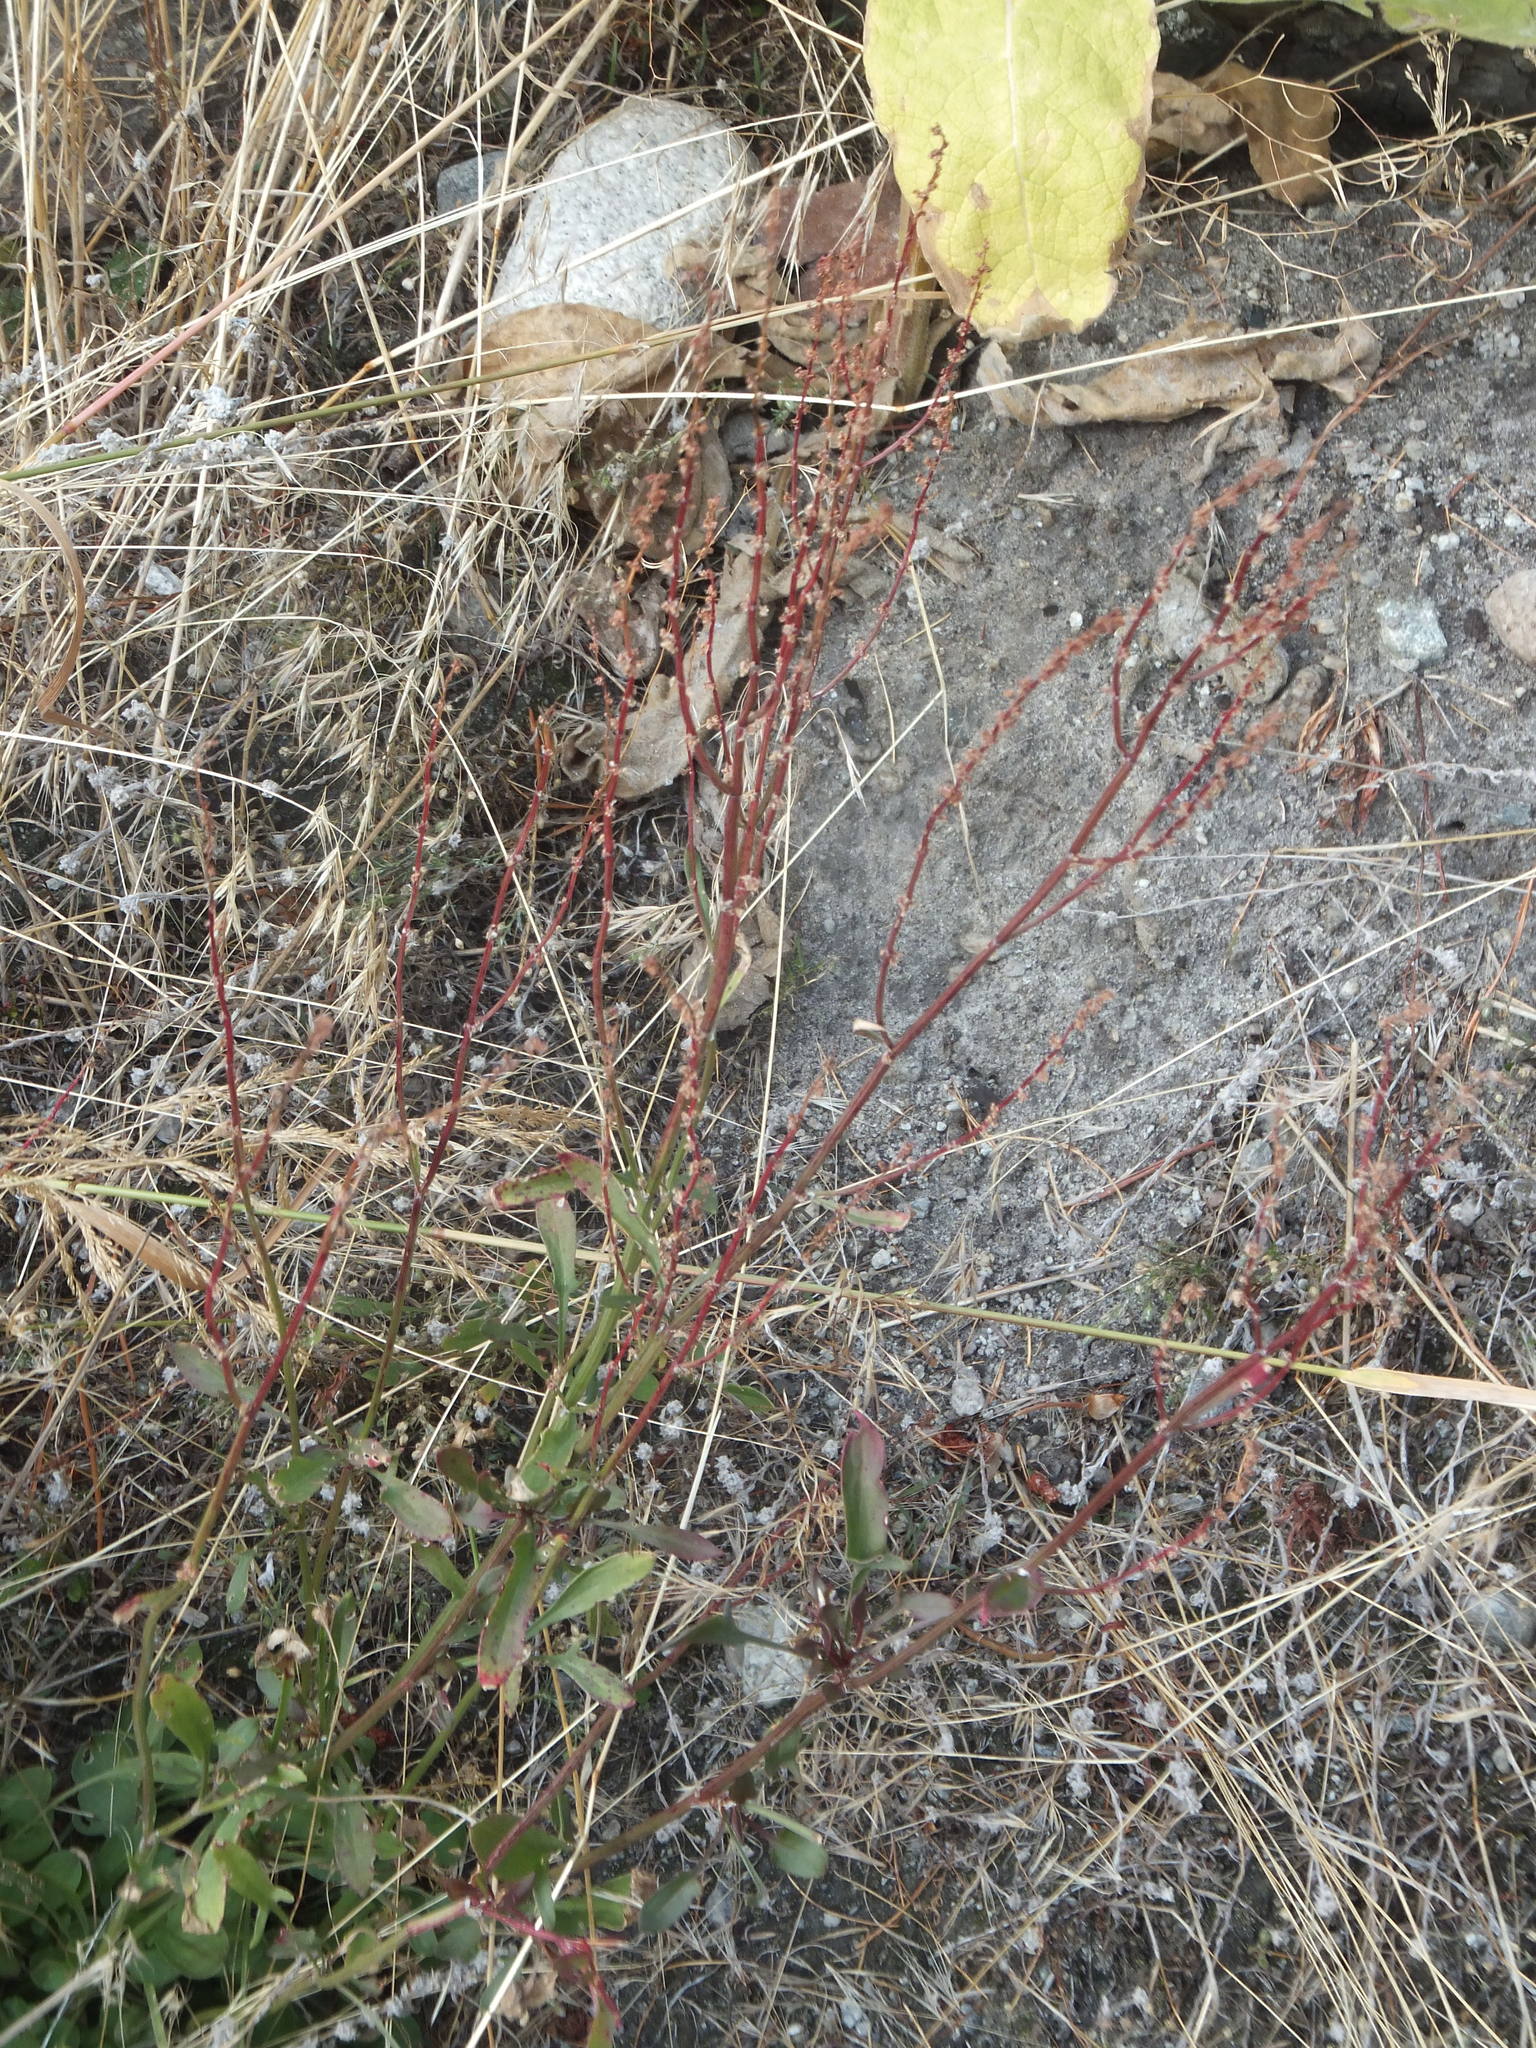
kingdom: Plantae
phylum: Tracheophyta
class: Magnoliopsida
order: Caryophyllales
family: Polygonaceae
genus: Rumex
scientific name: Rumex acetosella
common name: Common sheep sorrel
